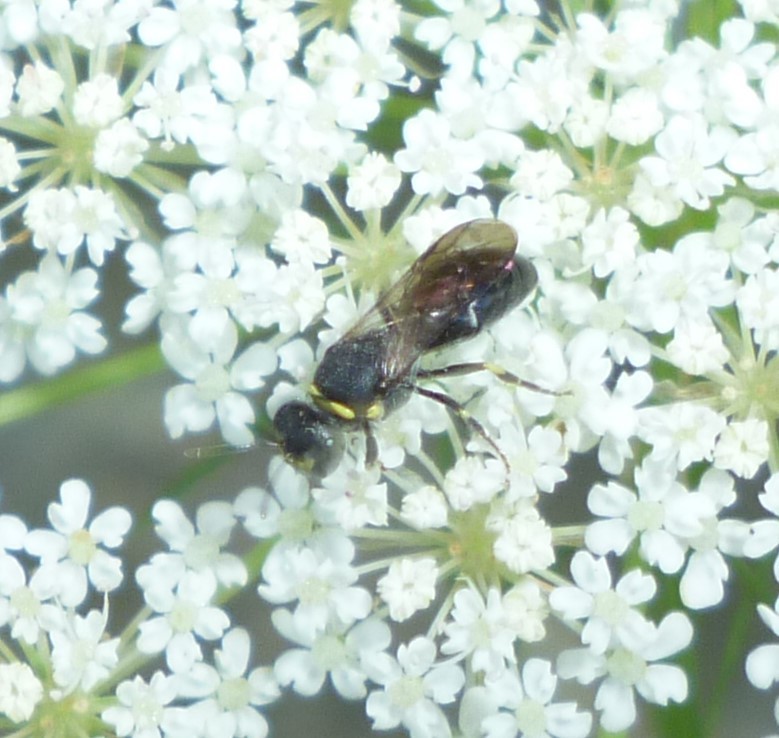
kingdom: Animalia
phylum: Arthropoda
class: Insecta
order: Hymenoptera
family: Colletidae
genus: Hylaeus
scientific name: Hylaeus modestus
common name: Yellow-faced bee
